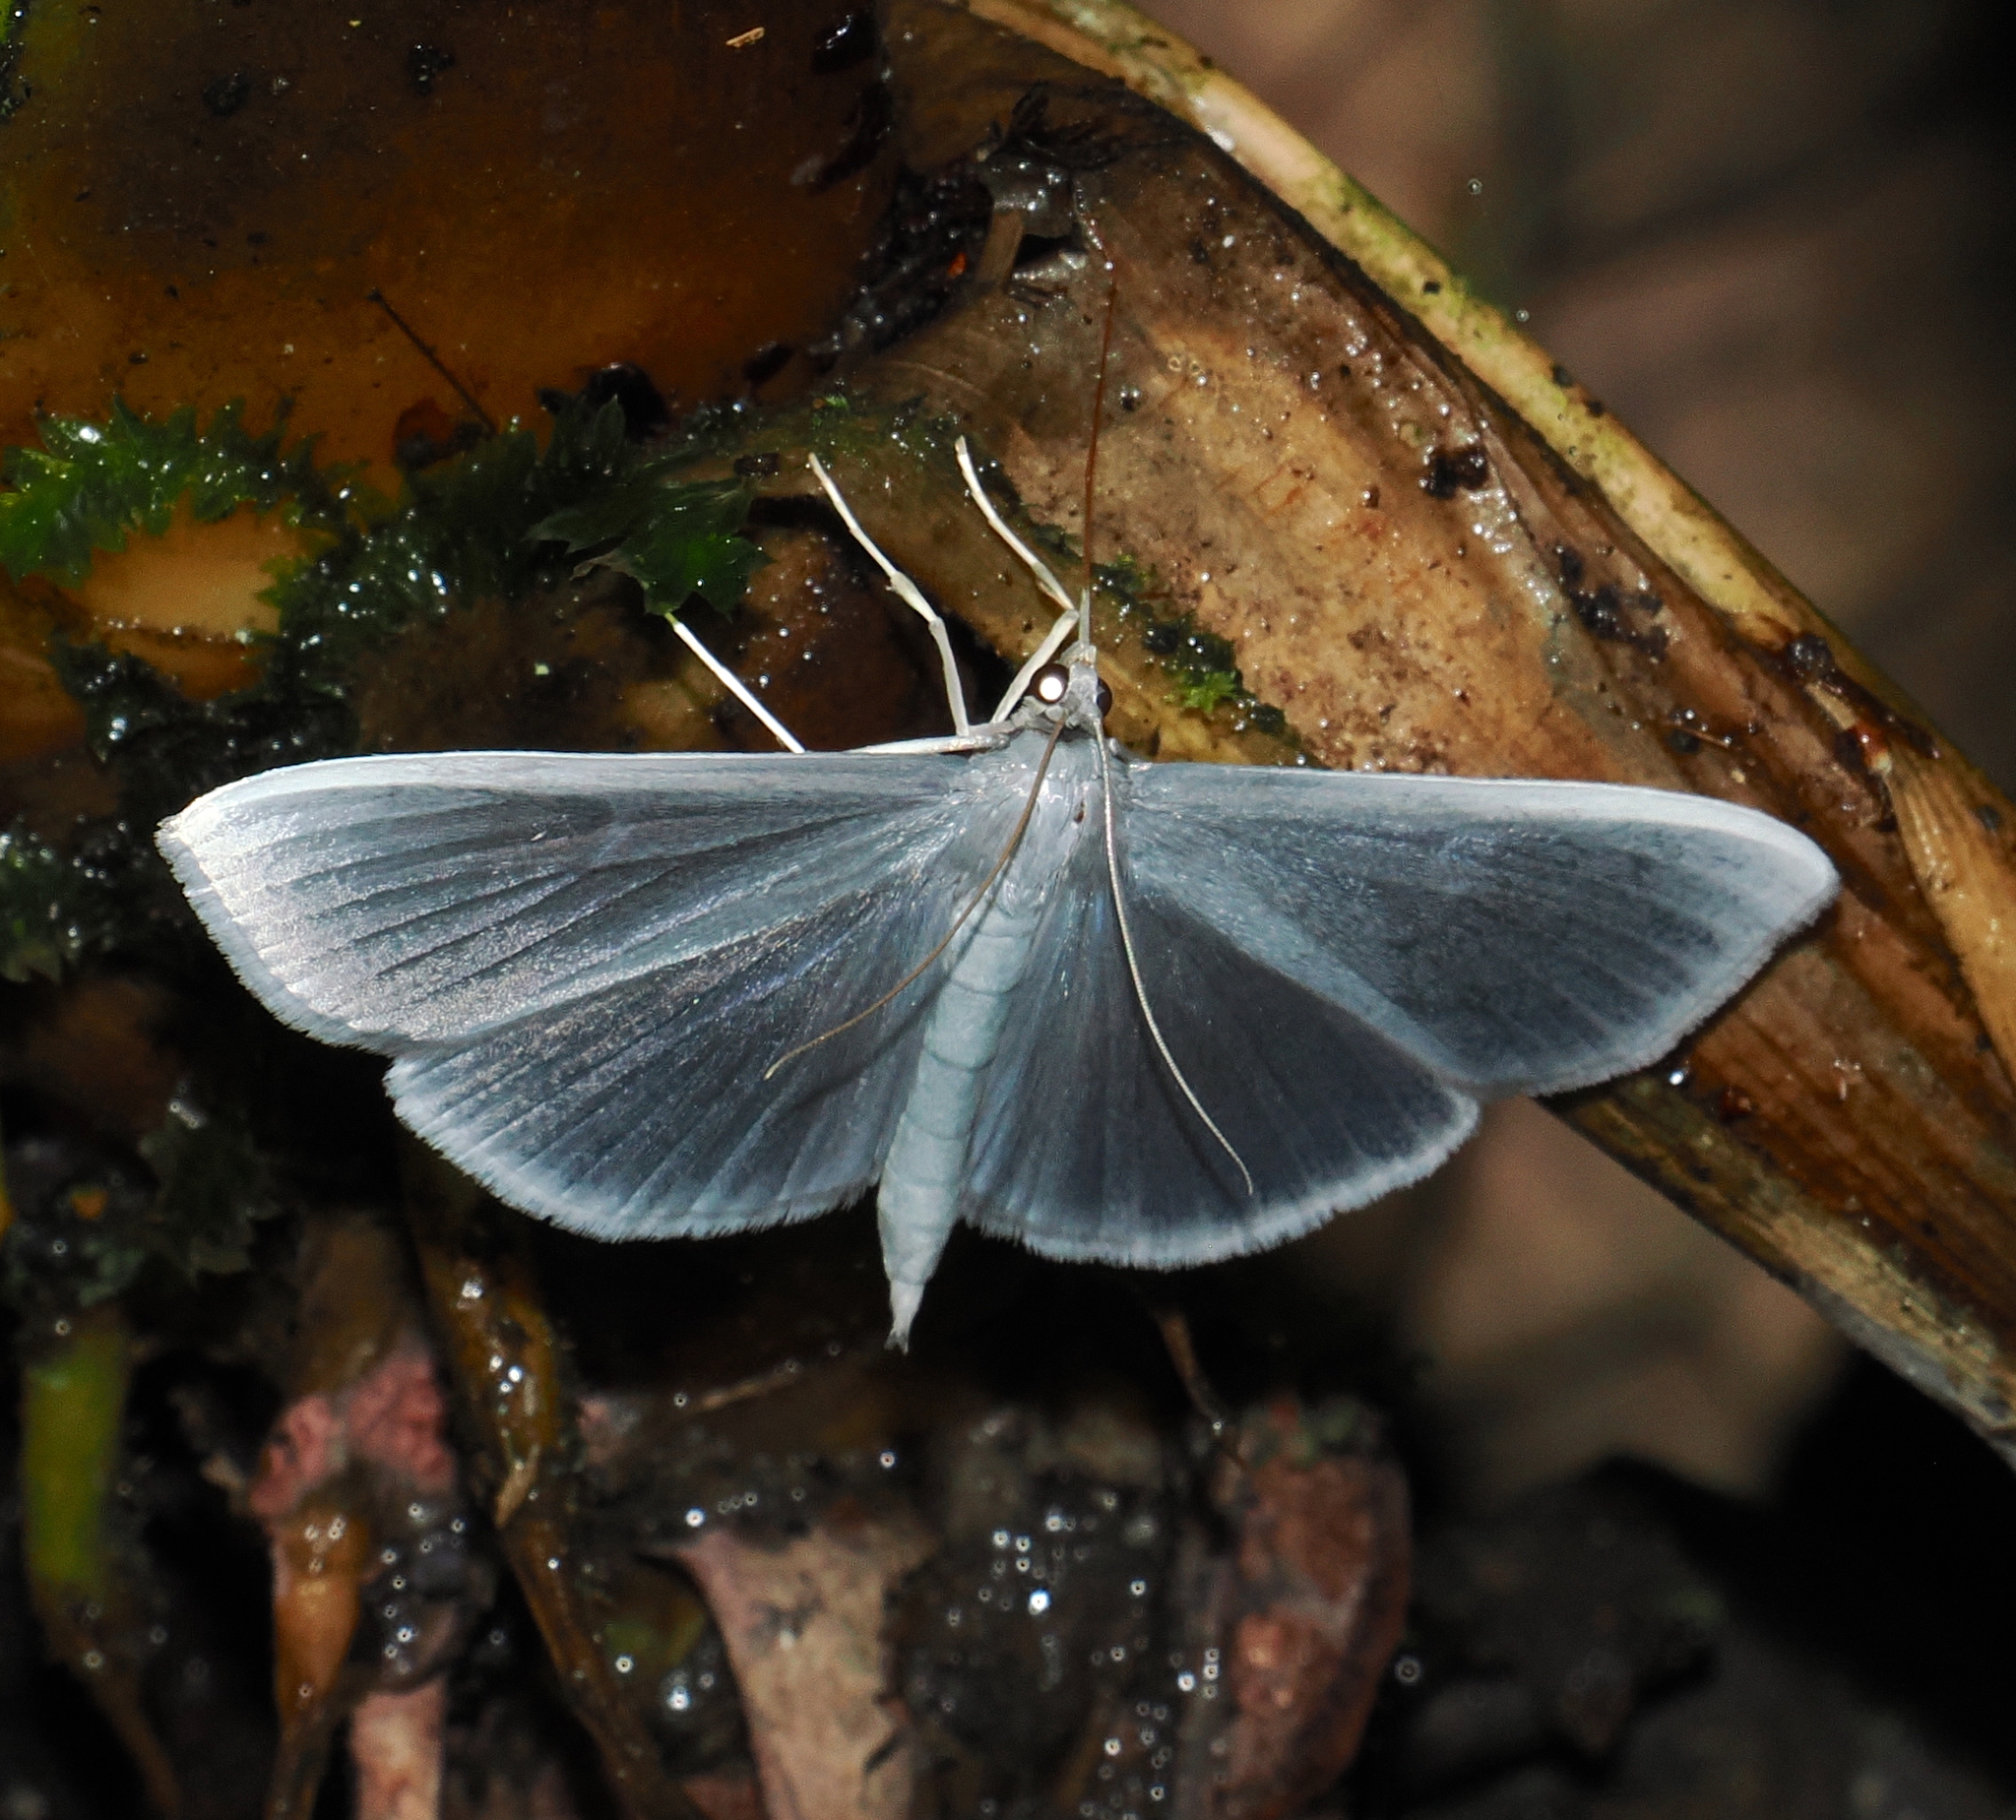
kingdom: Animalia
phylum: Arthropoda
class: Insecta
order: Lepidoptera
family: Crambidae
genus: Hoterodes
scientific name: Hoterodes ausonia
